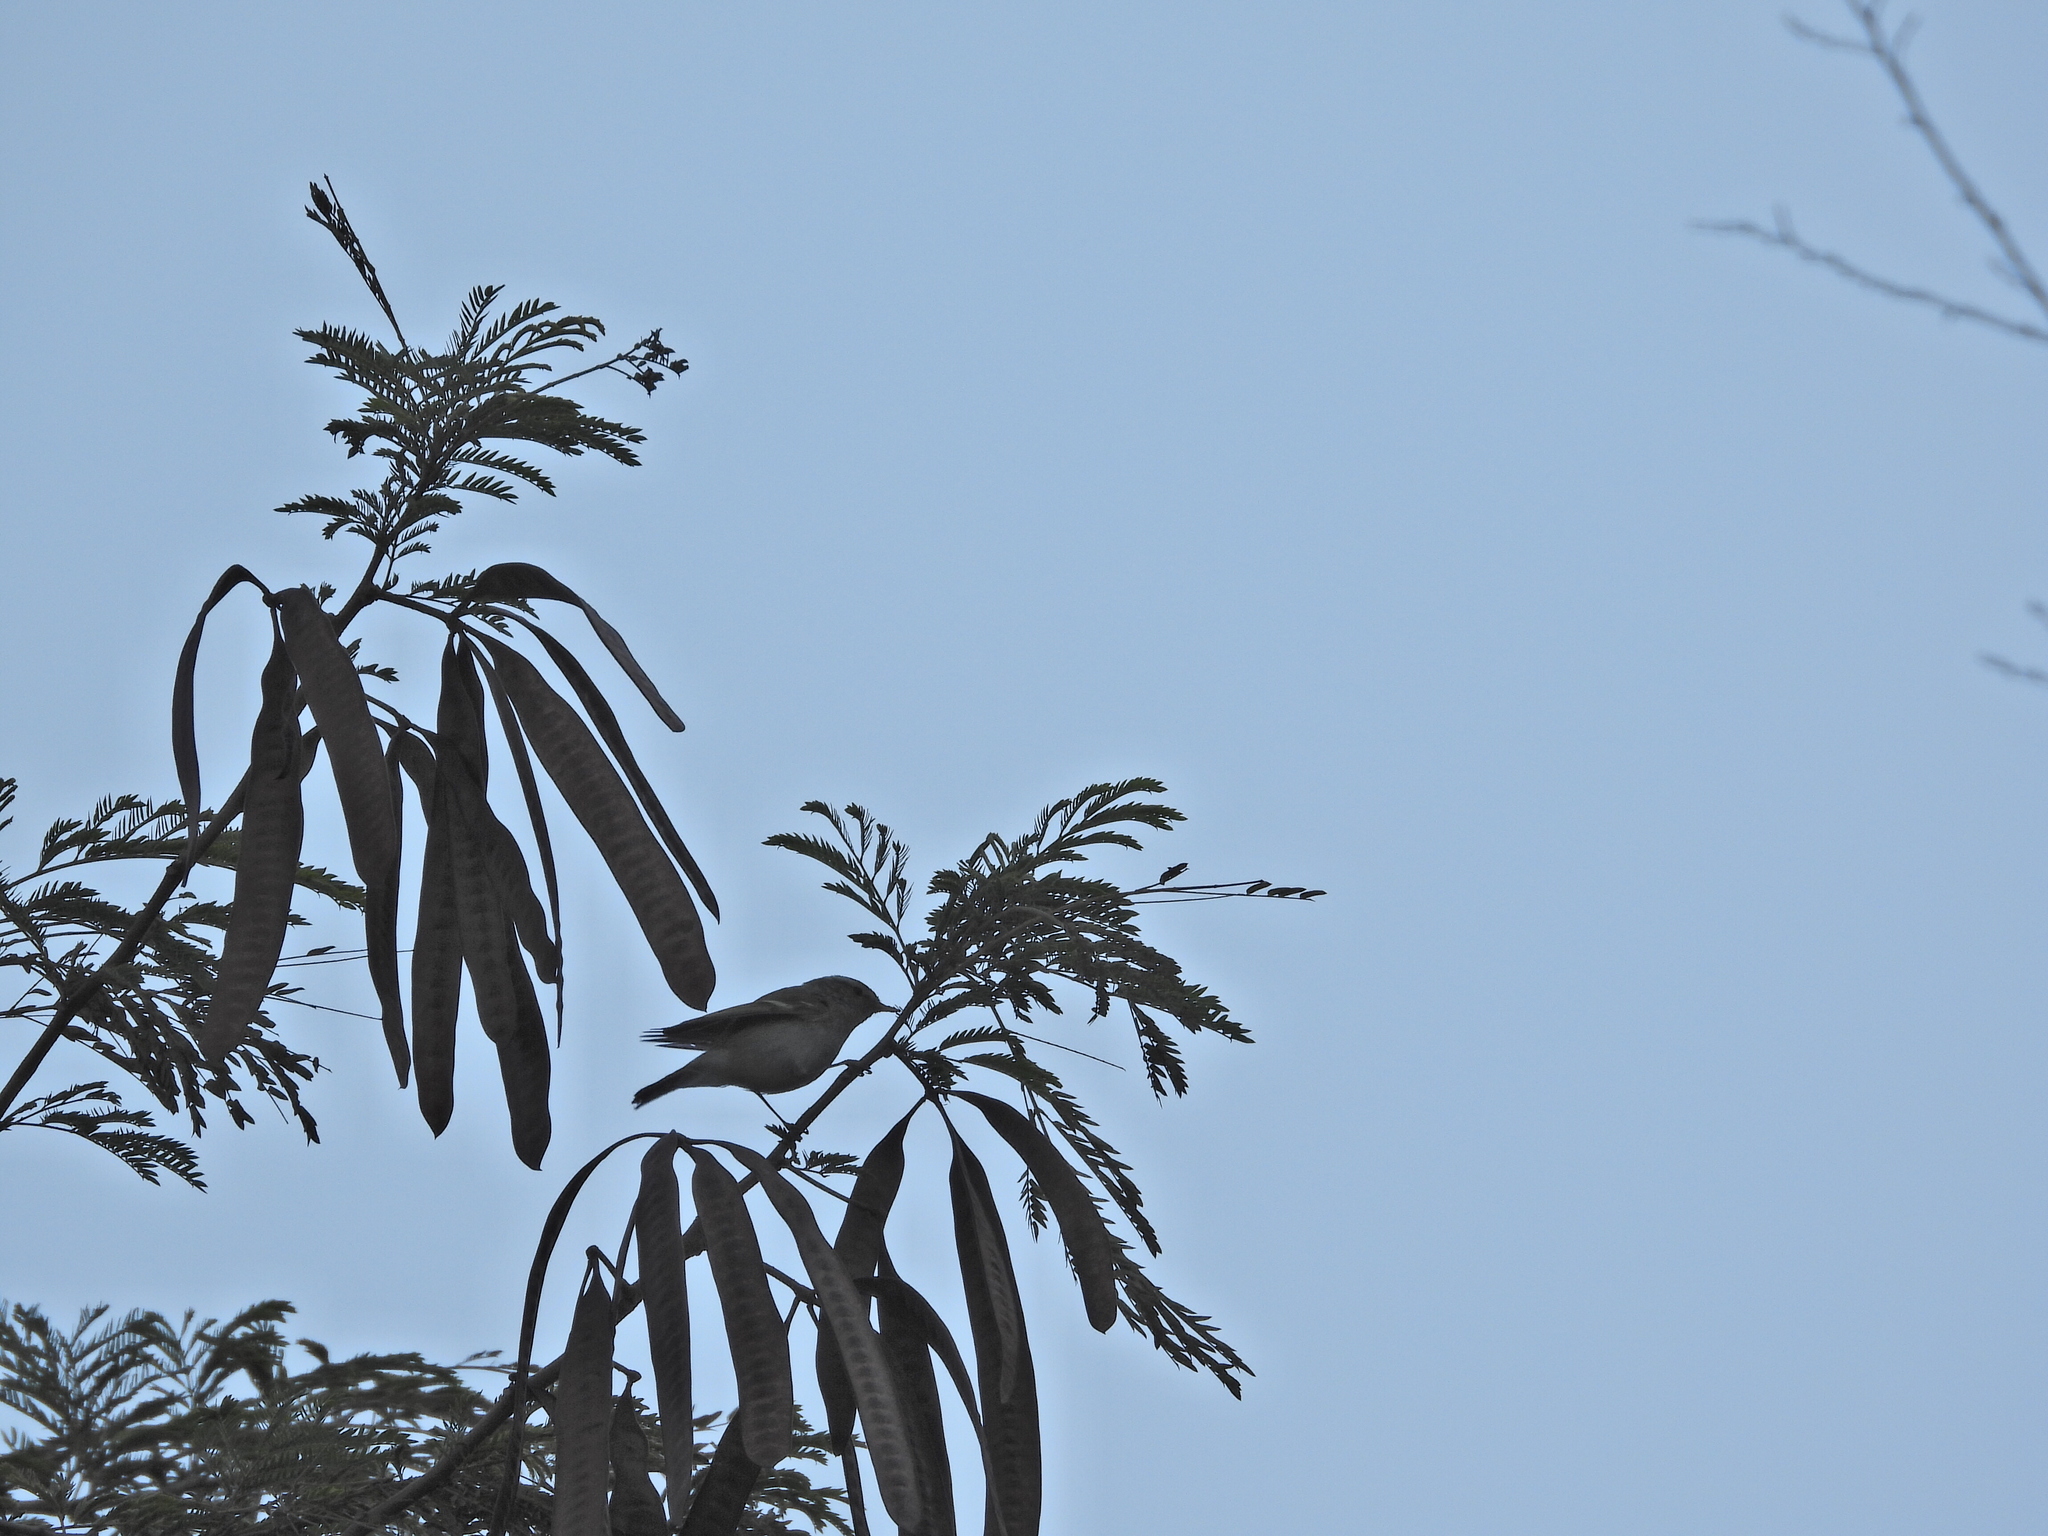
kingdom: Animalia
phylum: Chordata
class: Aves
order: Passeriformes
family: Phylloscopidae
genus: Phylloscopus
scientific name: Phylloscopus plumbeitarsus
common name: Two-barred warbler
